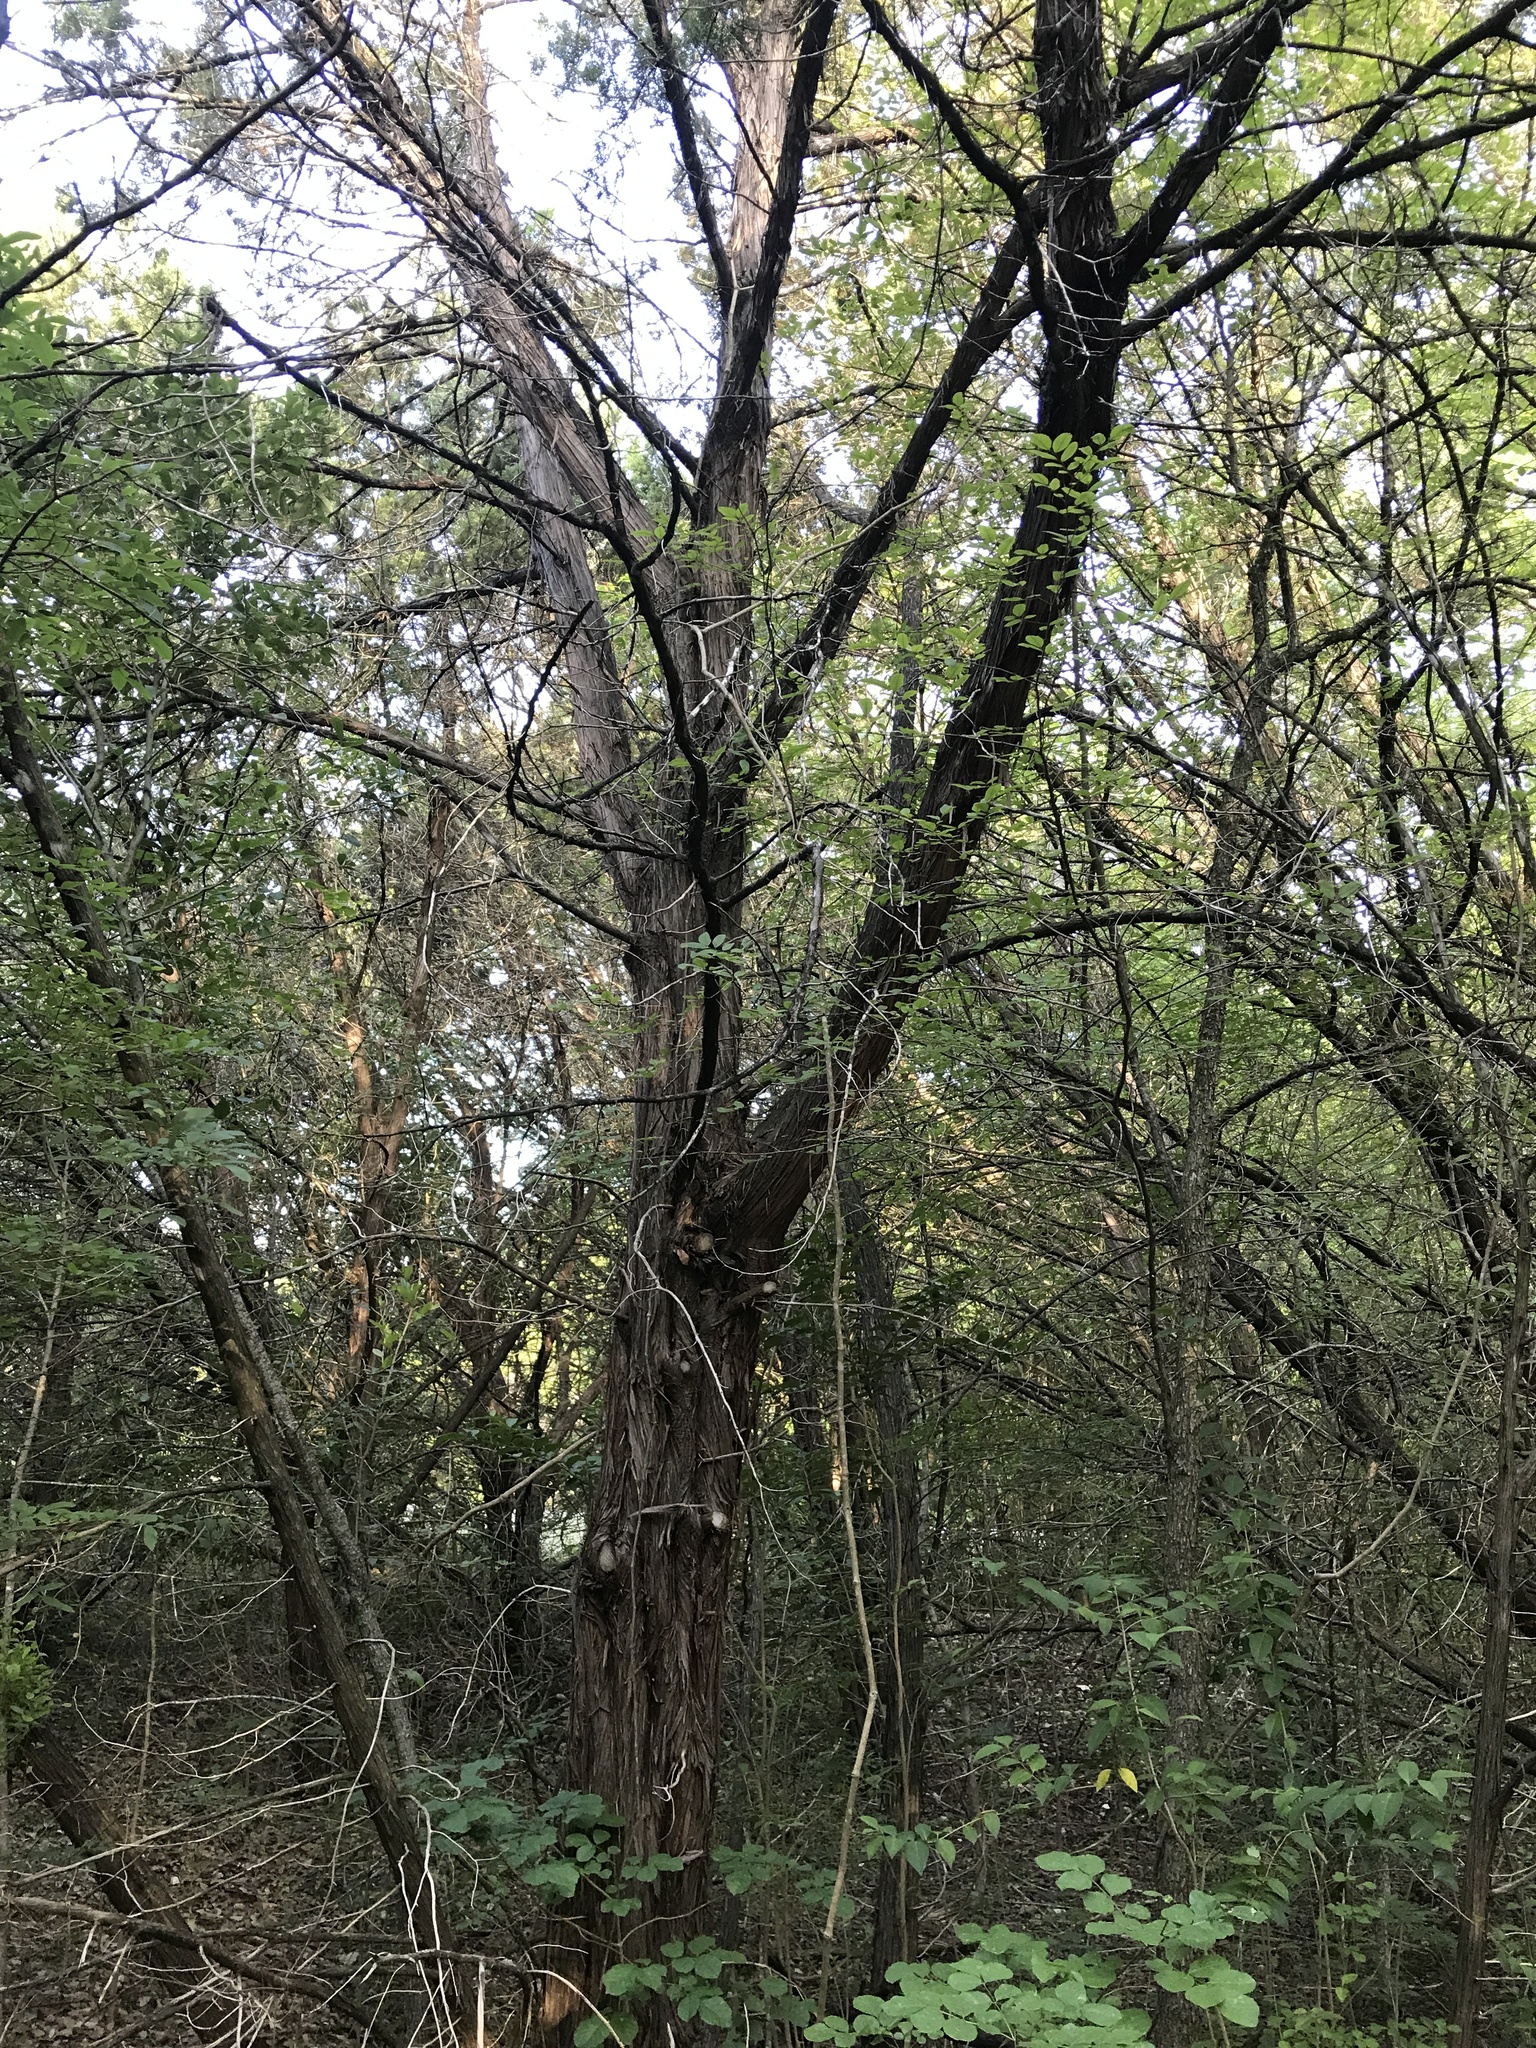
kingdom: Plantae
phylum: Tracheophyta
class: Pinopsida
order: Pinales
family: Cupressaceae
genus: Juniperus
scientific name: Juniperus ashei
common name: Mexican juniper
